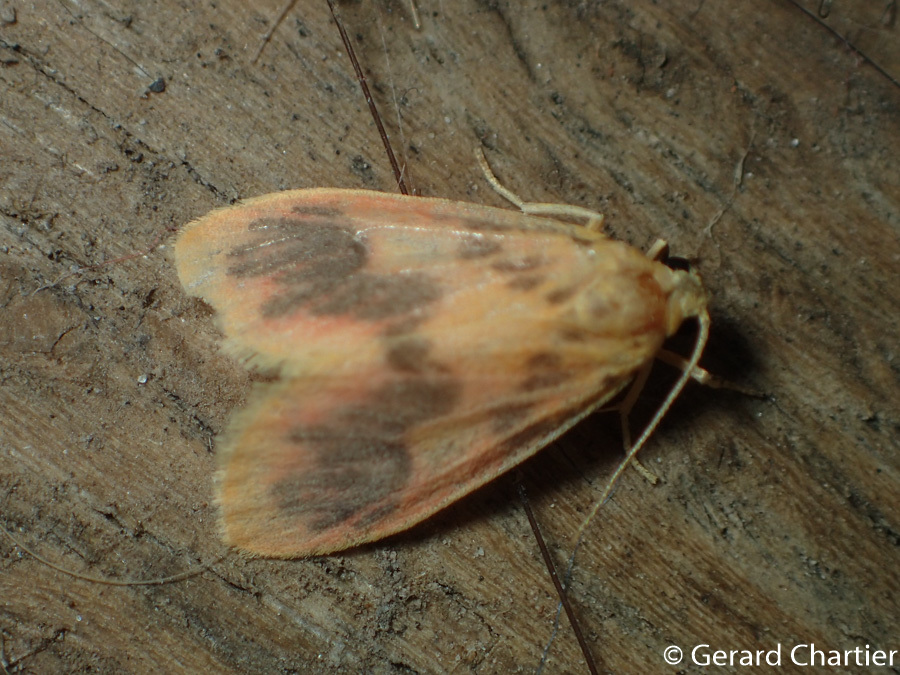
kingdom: Animalia
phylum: Arthropoda
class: Insecta
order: Lepidoptera
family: Erebidae
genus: Miltochrista
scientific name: Miltochrista
